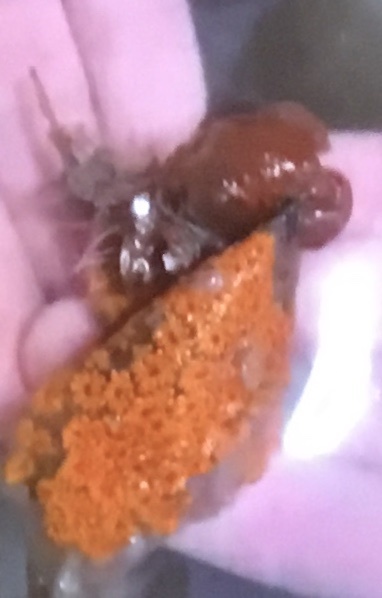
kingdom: Animalia
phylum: Chordata
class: Ascidiacea
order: Stolidobranchia
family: Styelidae
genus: Botryllus
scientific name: Botryllus schlosseri
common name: Golden star tunicate
